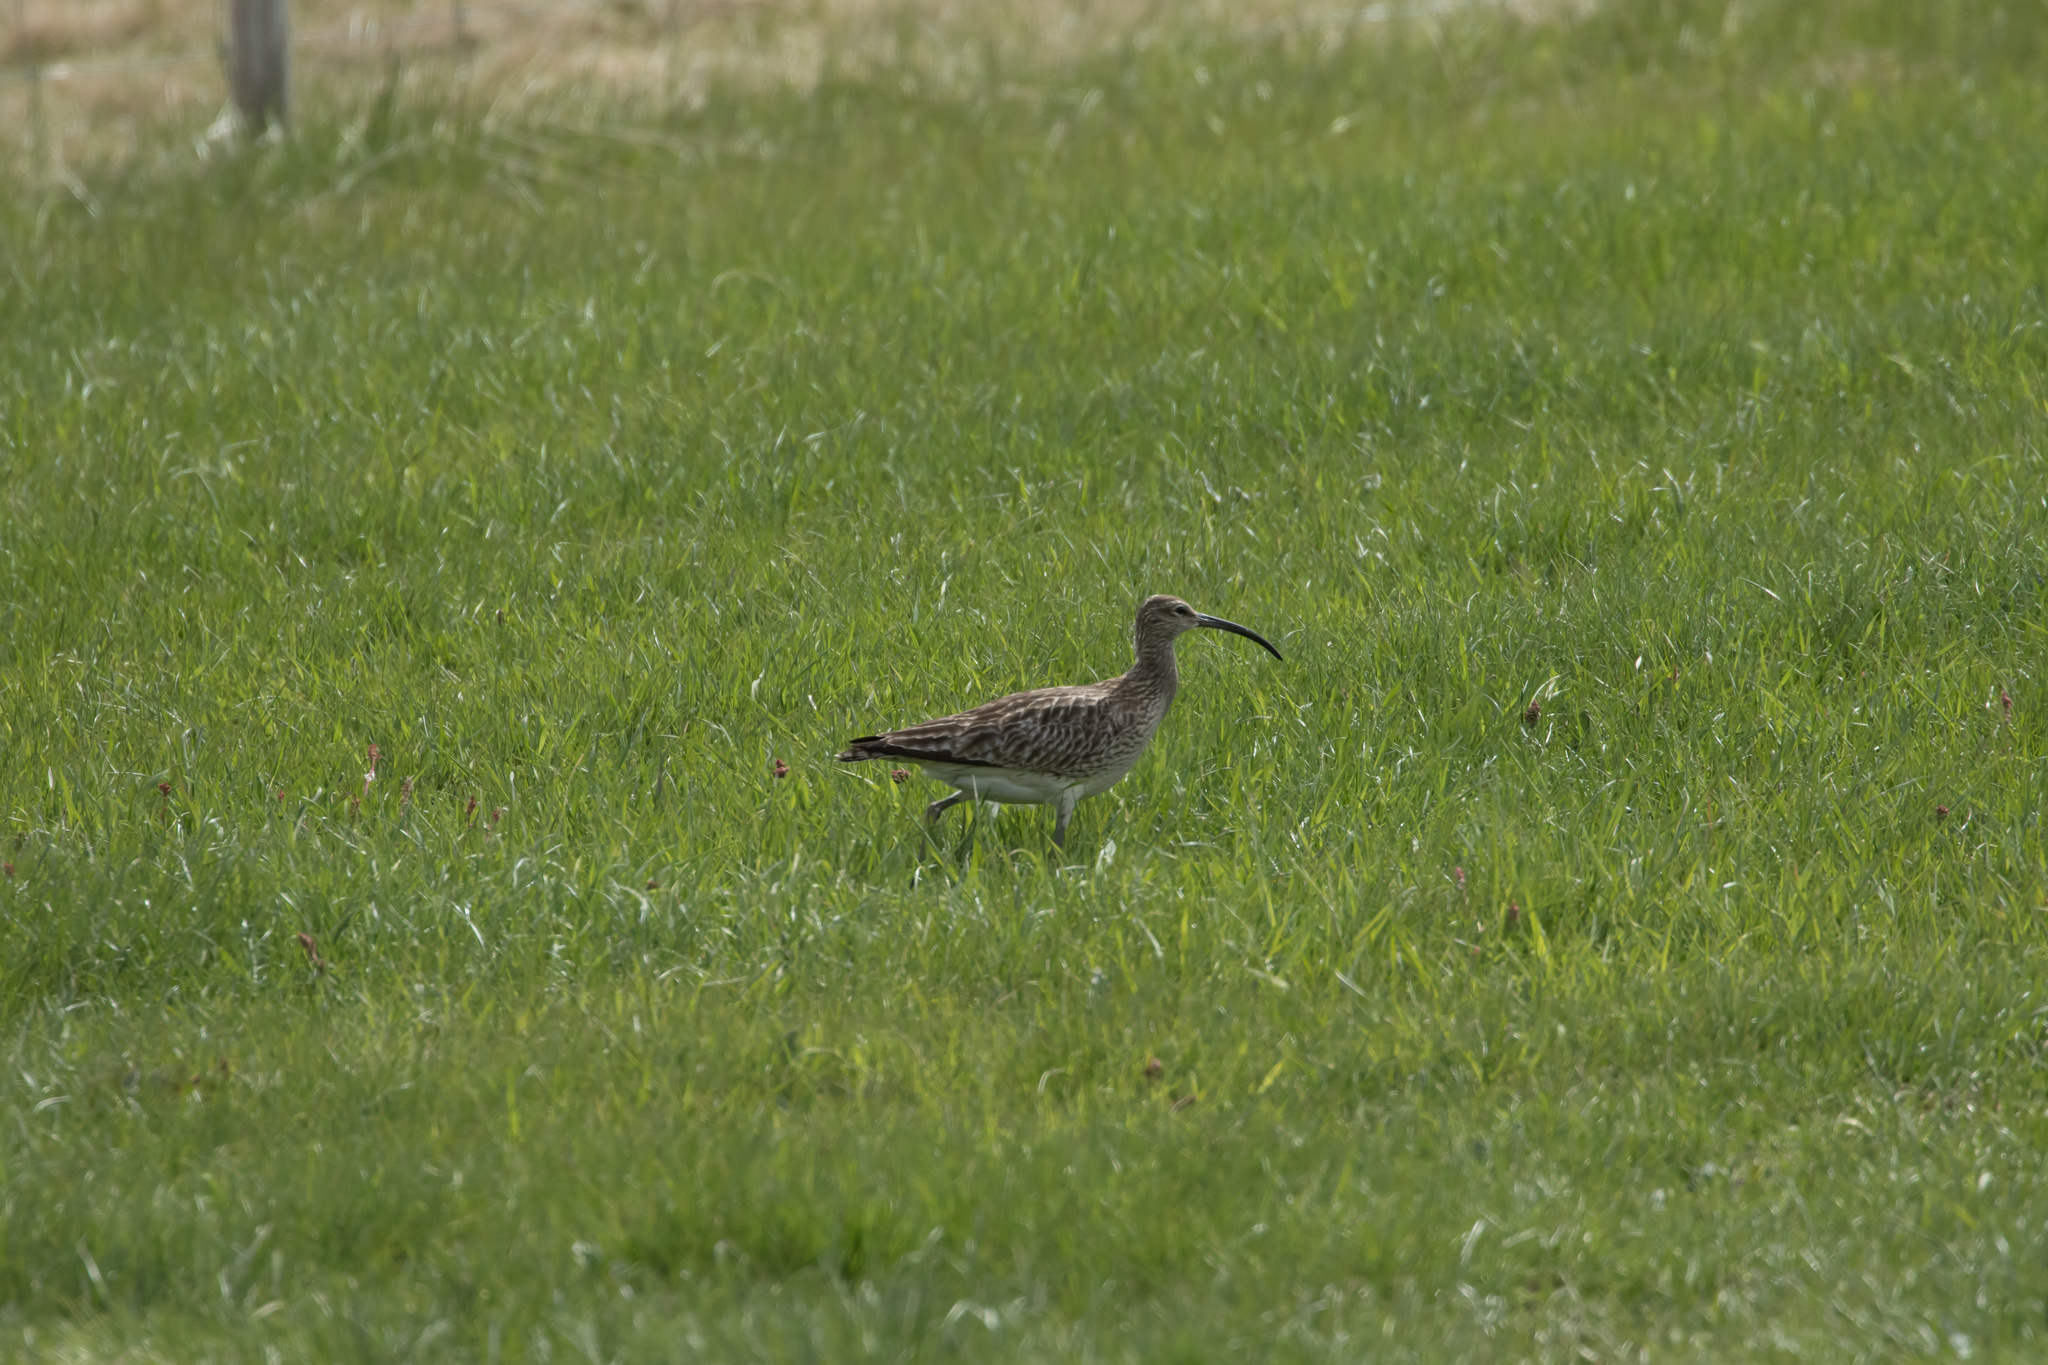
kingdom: Animalia
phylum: Chordata
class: Aves
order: Charadriiformes
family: Scolopacidae
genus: Numenius
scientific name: Numenius phaeopus
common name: Whimbrel
